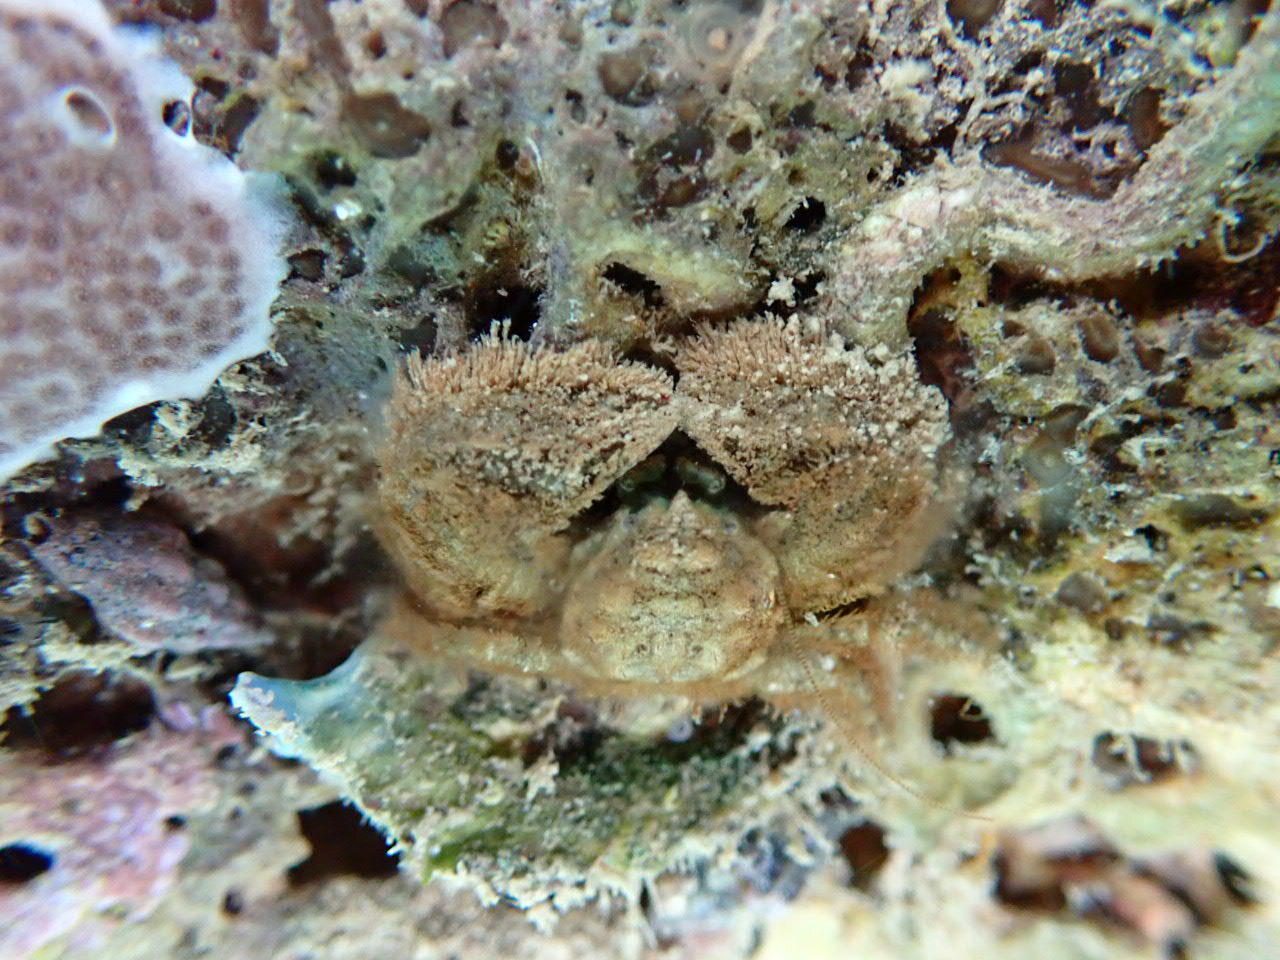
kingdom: Animalia
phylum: Arthropoda
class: Malacostraca
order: Decapoda
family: Porcellanidae
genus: Porcellana
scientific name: Porcellana platycheles
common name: Porcelain crab
